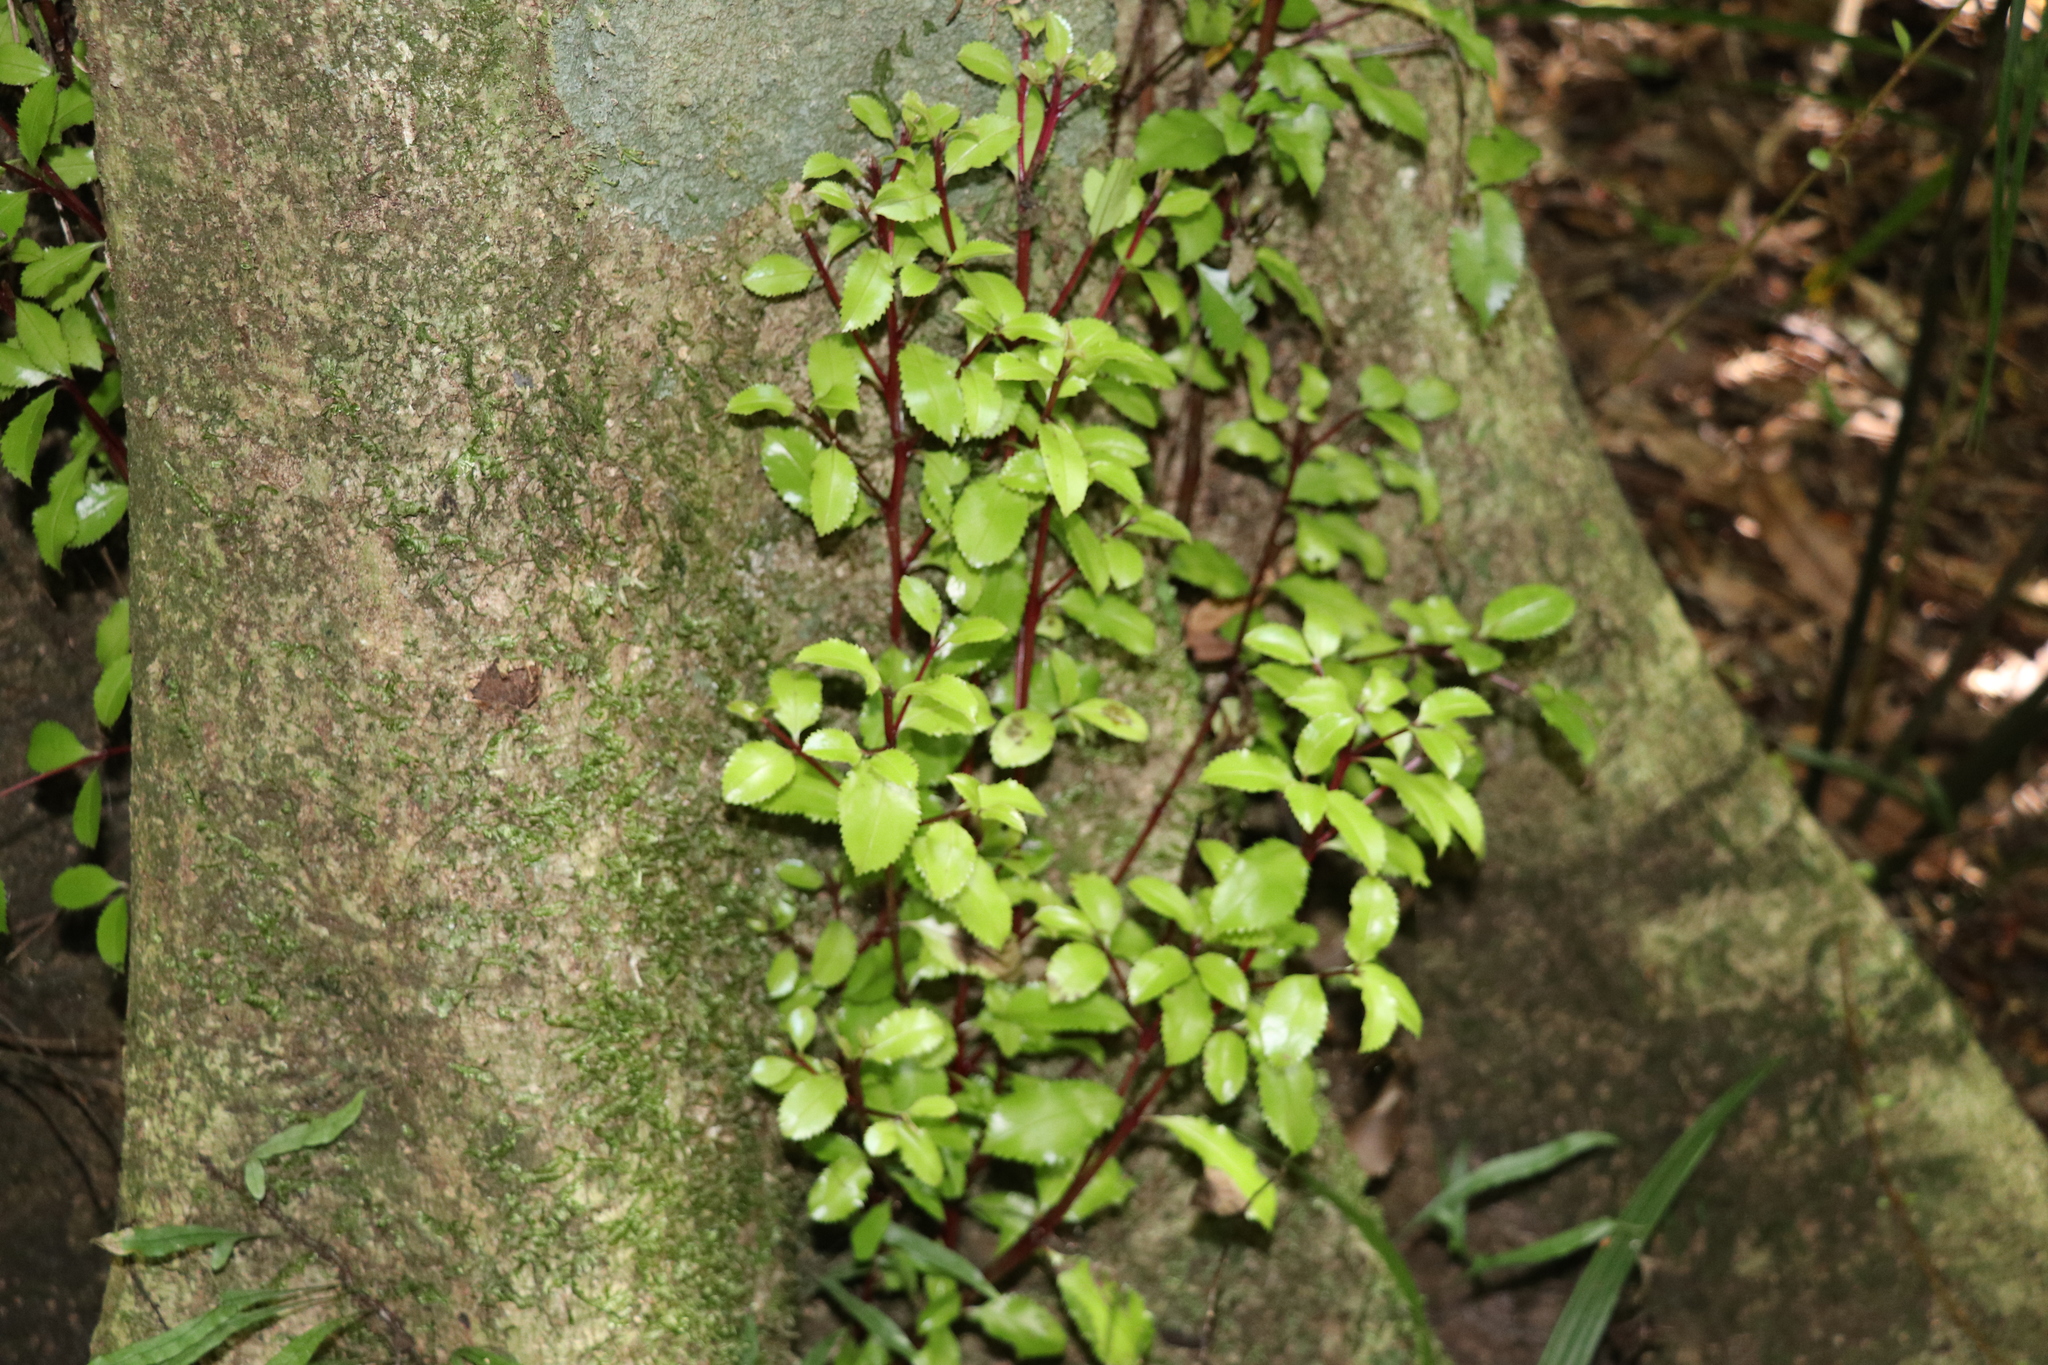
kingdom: Plantae
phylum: Tracheophyta
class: Magnoliopsida
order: Laurales
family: Atherospermataceae
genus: Laurelia
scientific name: Laurelia novae-zelandiae
